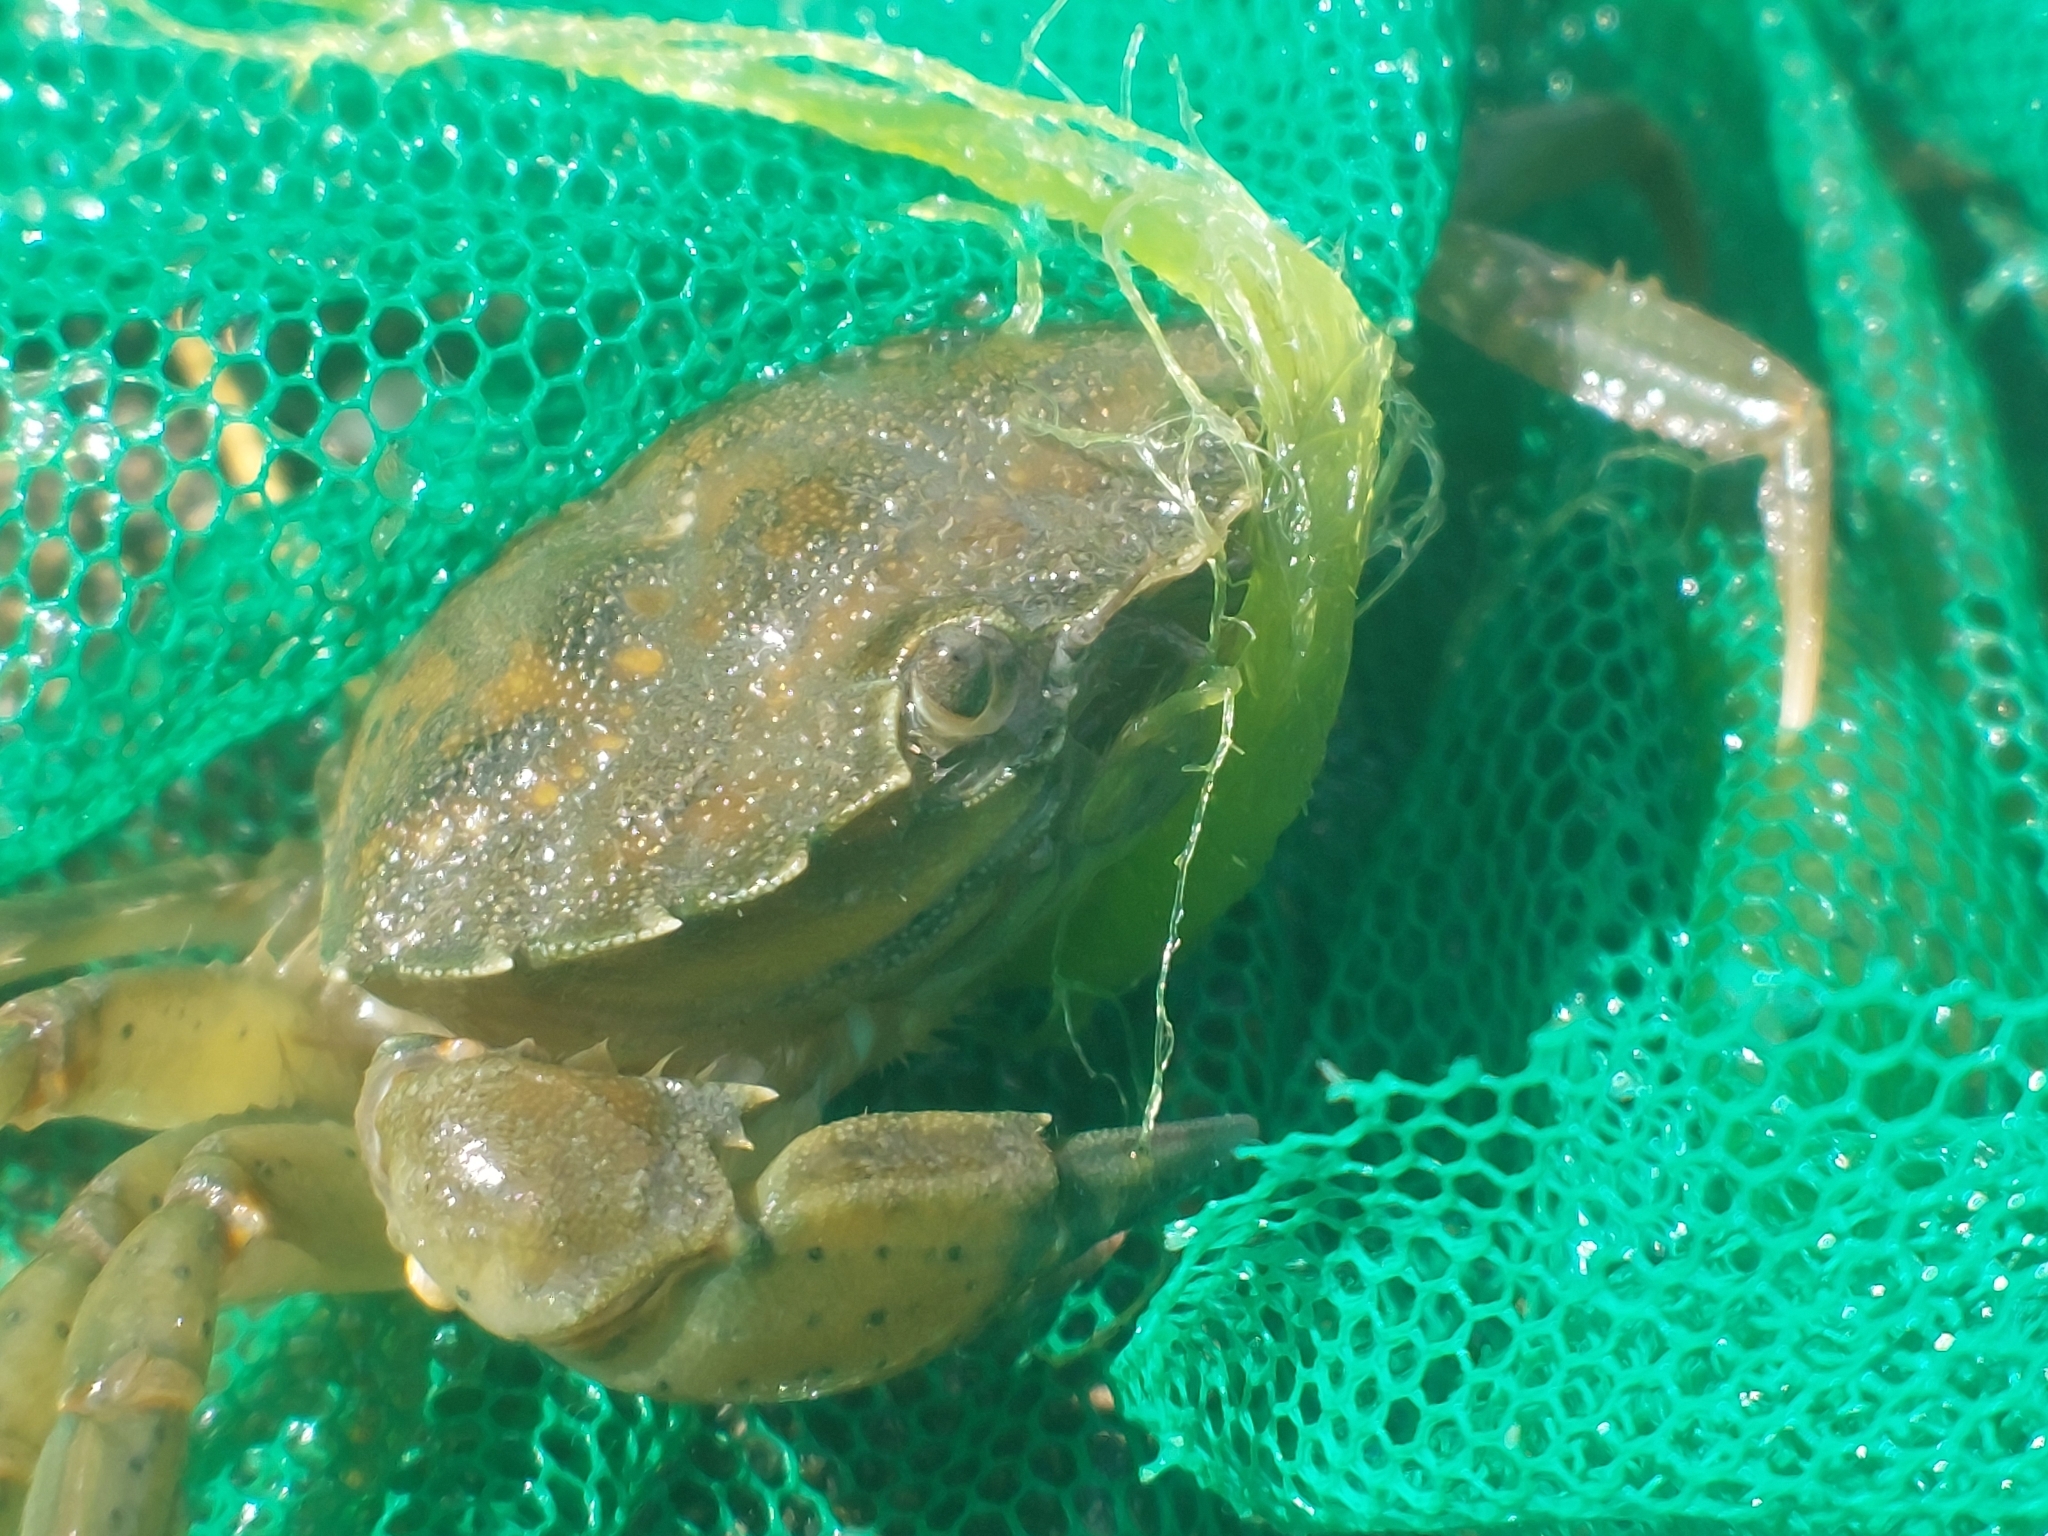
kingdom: Animalia
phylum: Arthropoda
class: Malacostraca
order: Decapoda
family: Carcinidae
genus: Carcinus
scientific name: Carcinus maenas
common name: European green crab
